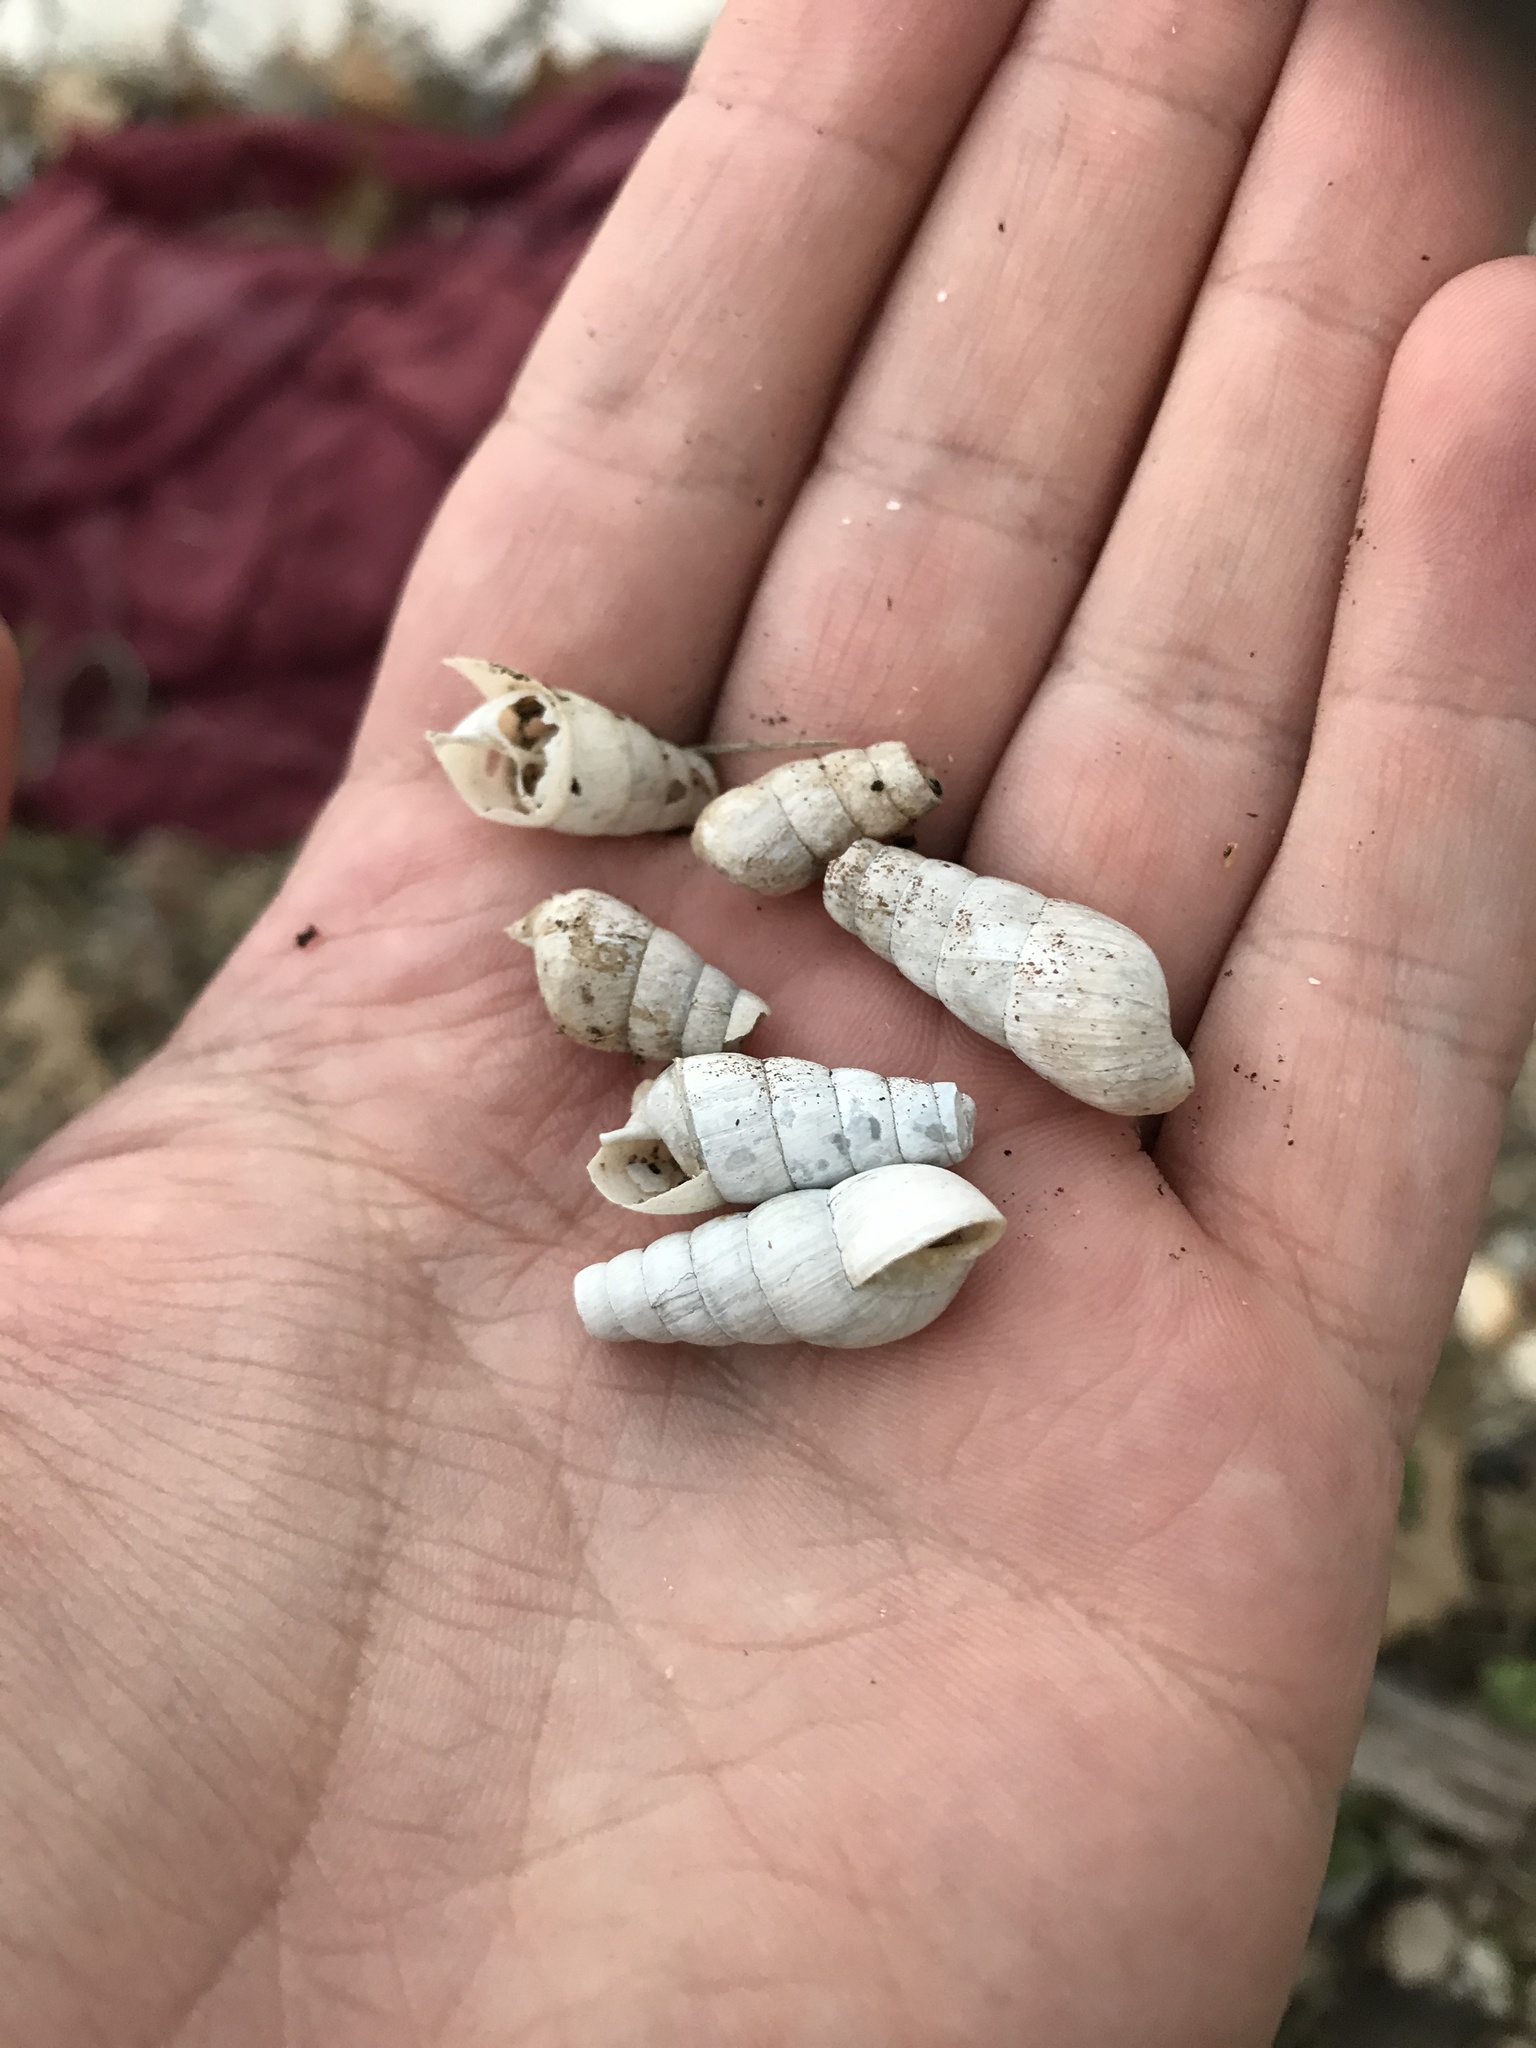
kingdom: Animalia
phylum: Mollusca
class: Gastropoda
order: Stylommatophora
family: Achatinidae
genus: Rumina
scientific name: Rumina decollata
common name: Decollate snail
